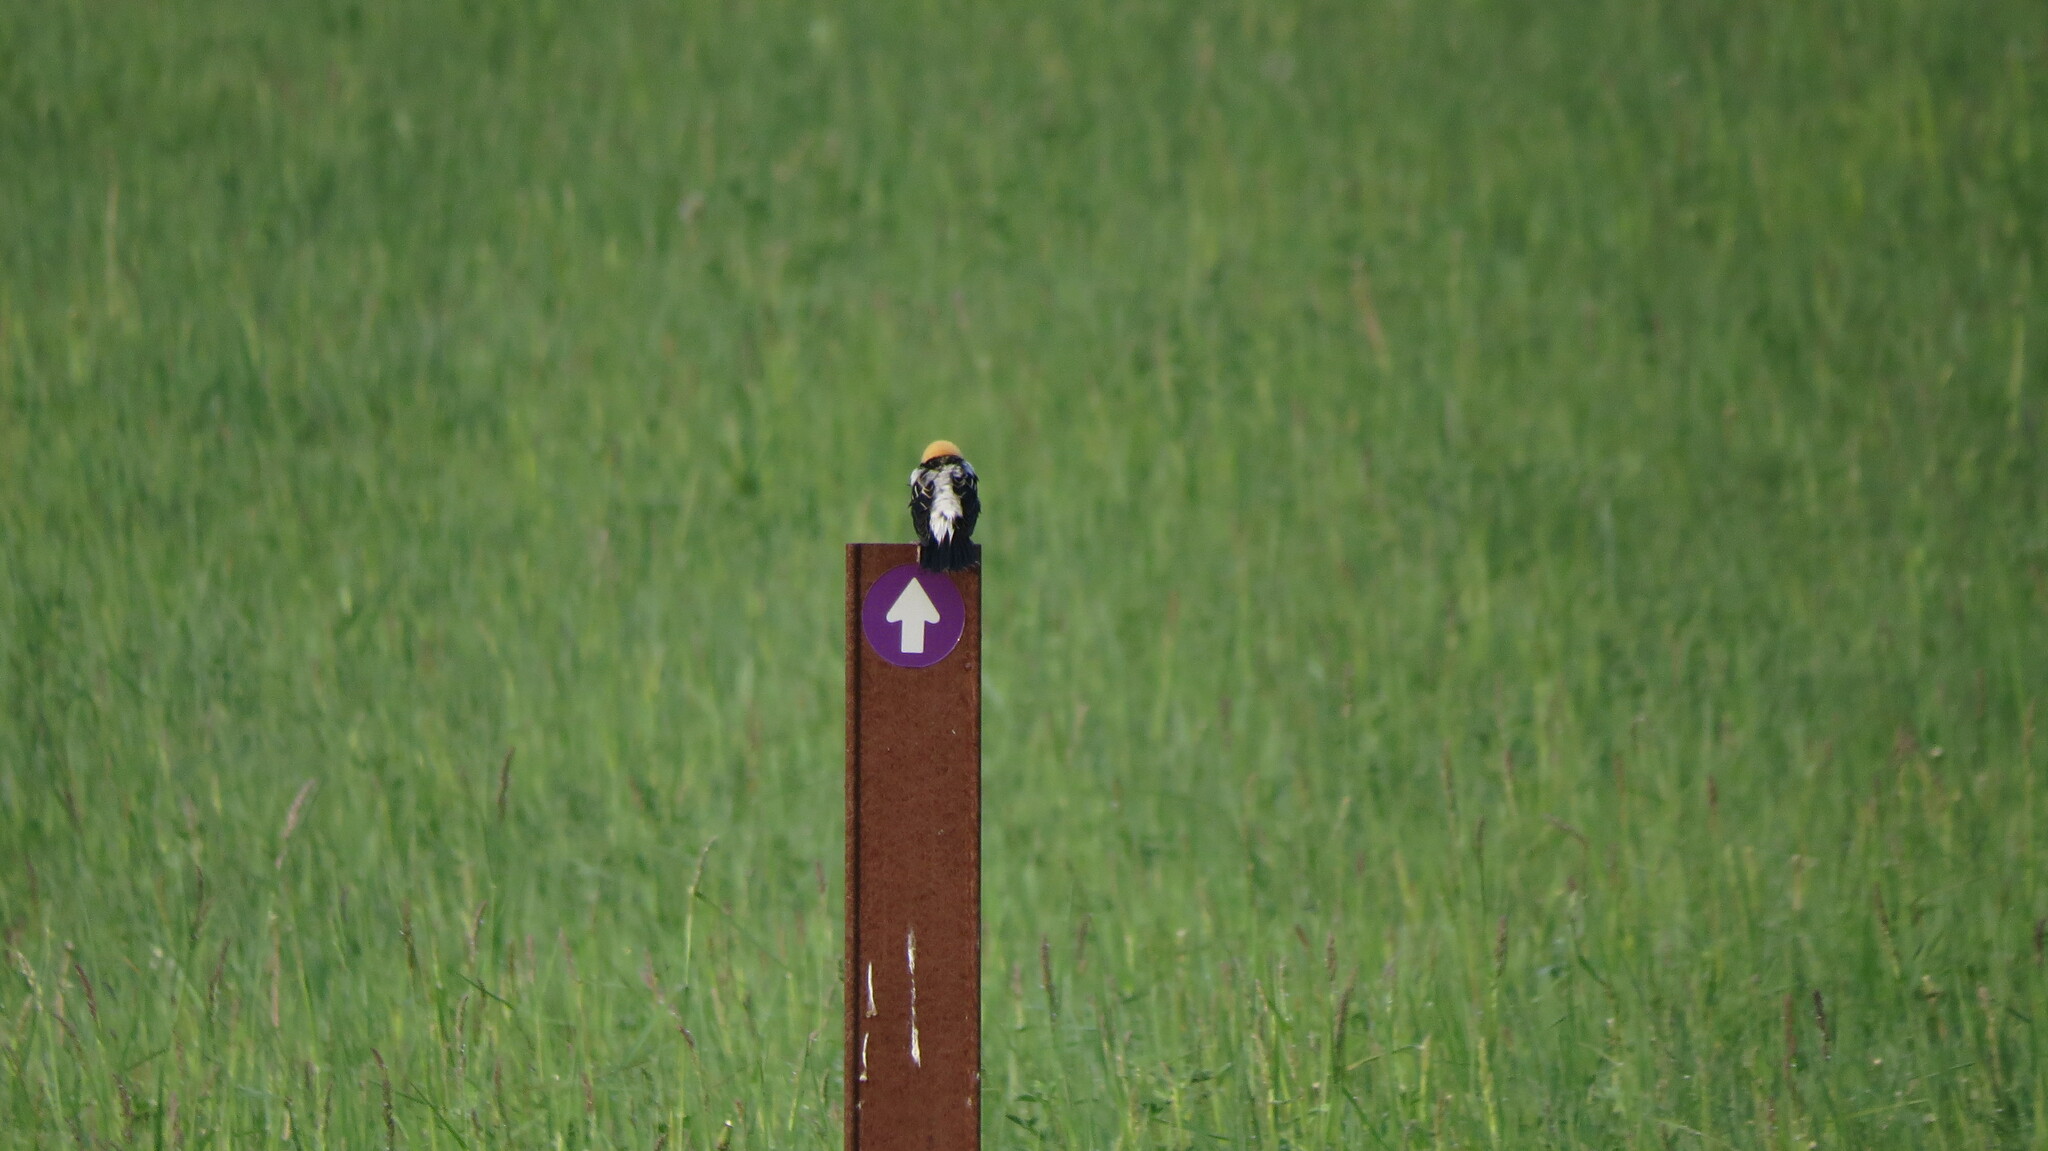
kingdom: Animalia
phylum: Chordata
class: Aves
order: Passeriformes
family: Icteridae
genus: Dolichonyx
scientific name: Dolichonyx oryzivorus
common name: Bobolink
